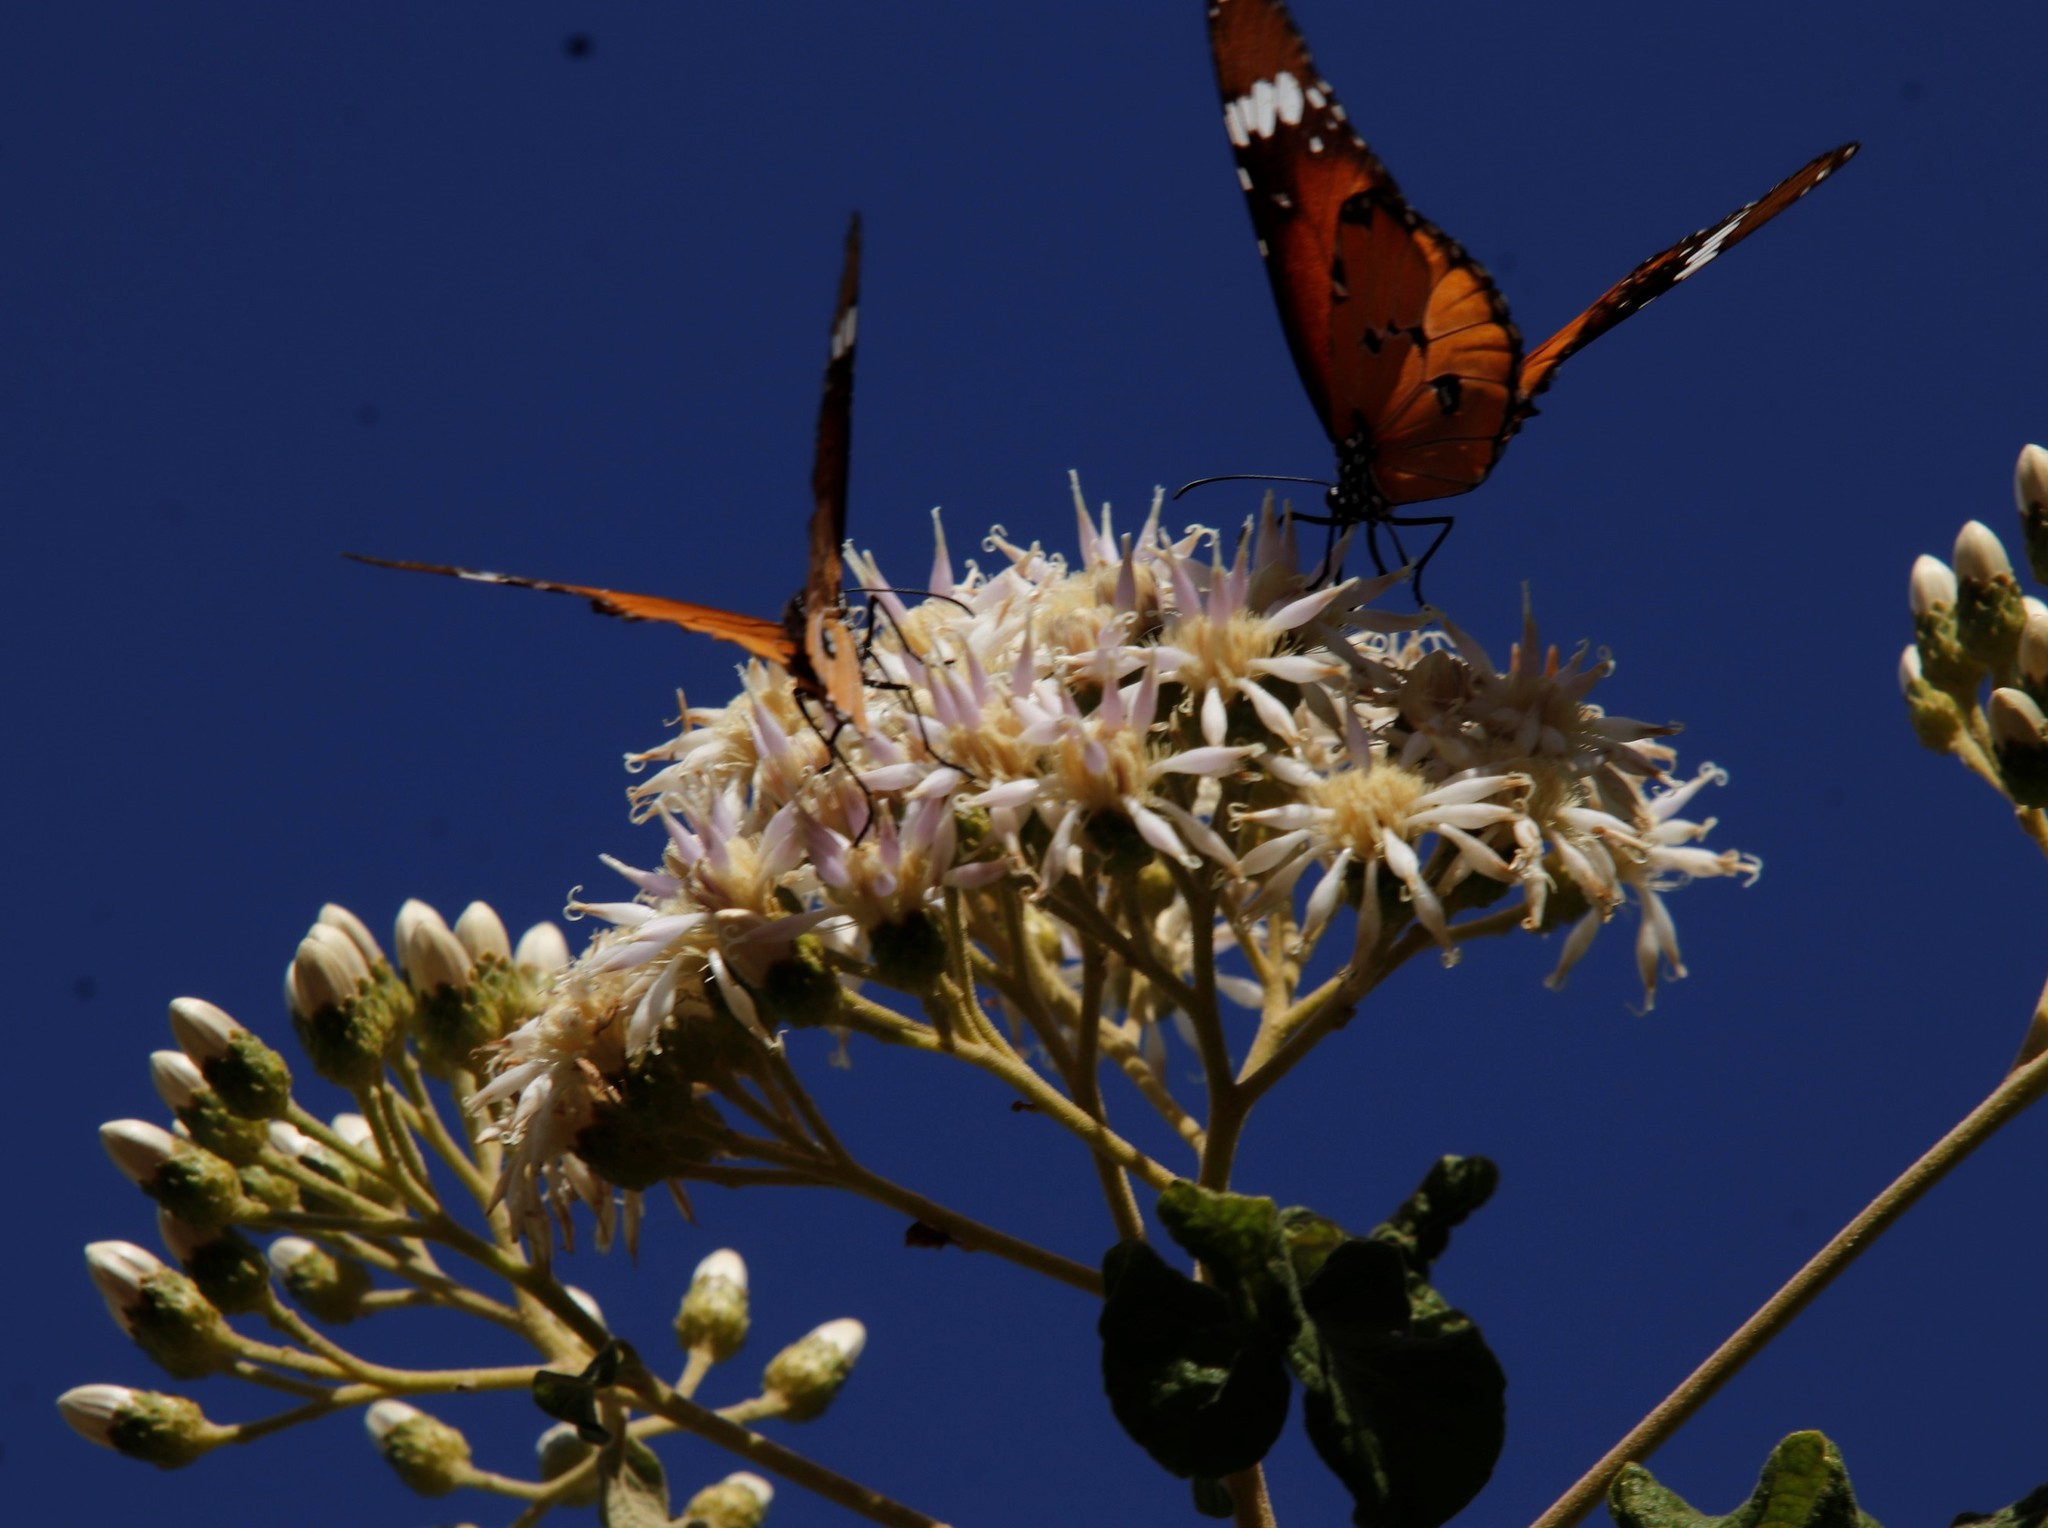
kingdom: Animalia
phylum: Arthropoda
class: Insecta
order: Lepidoptera
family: Nymphalidae
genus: Danaus
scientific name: Danaus chrysippus
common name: Plain tiger
